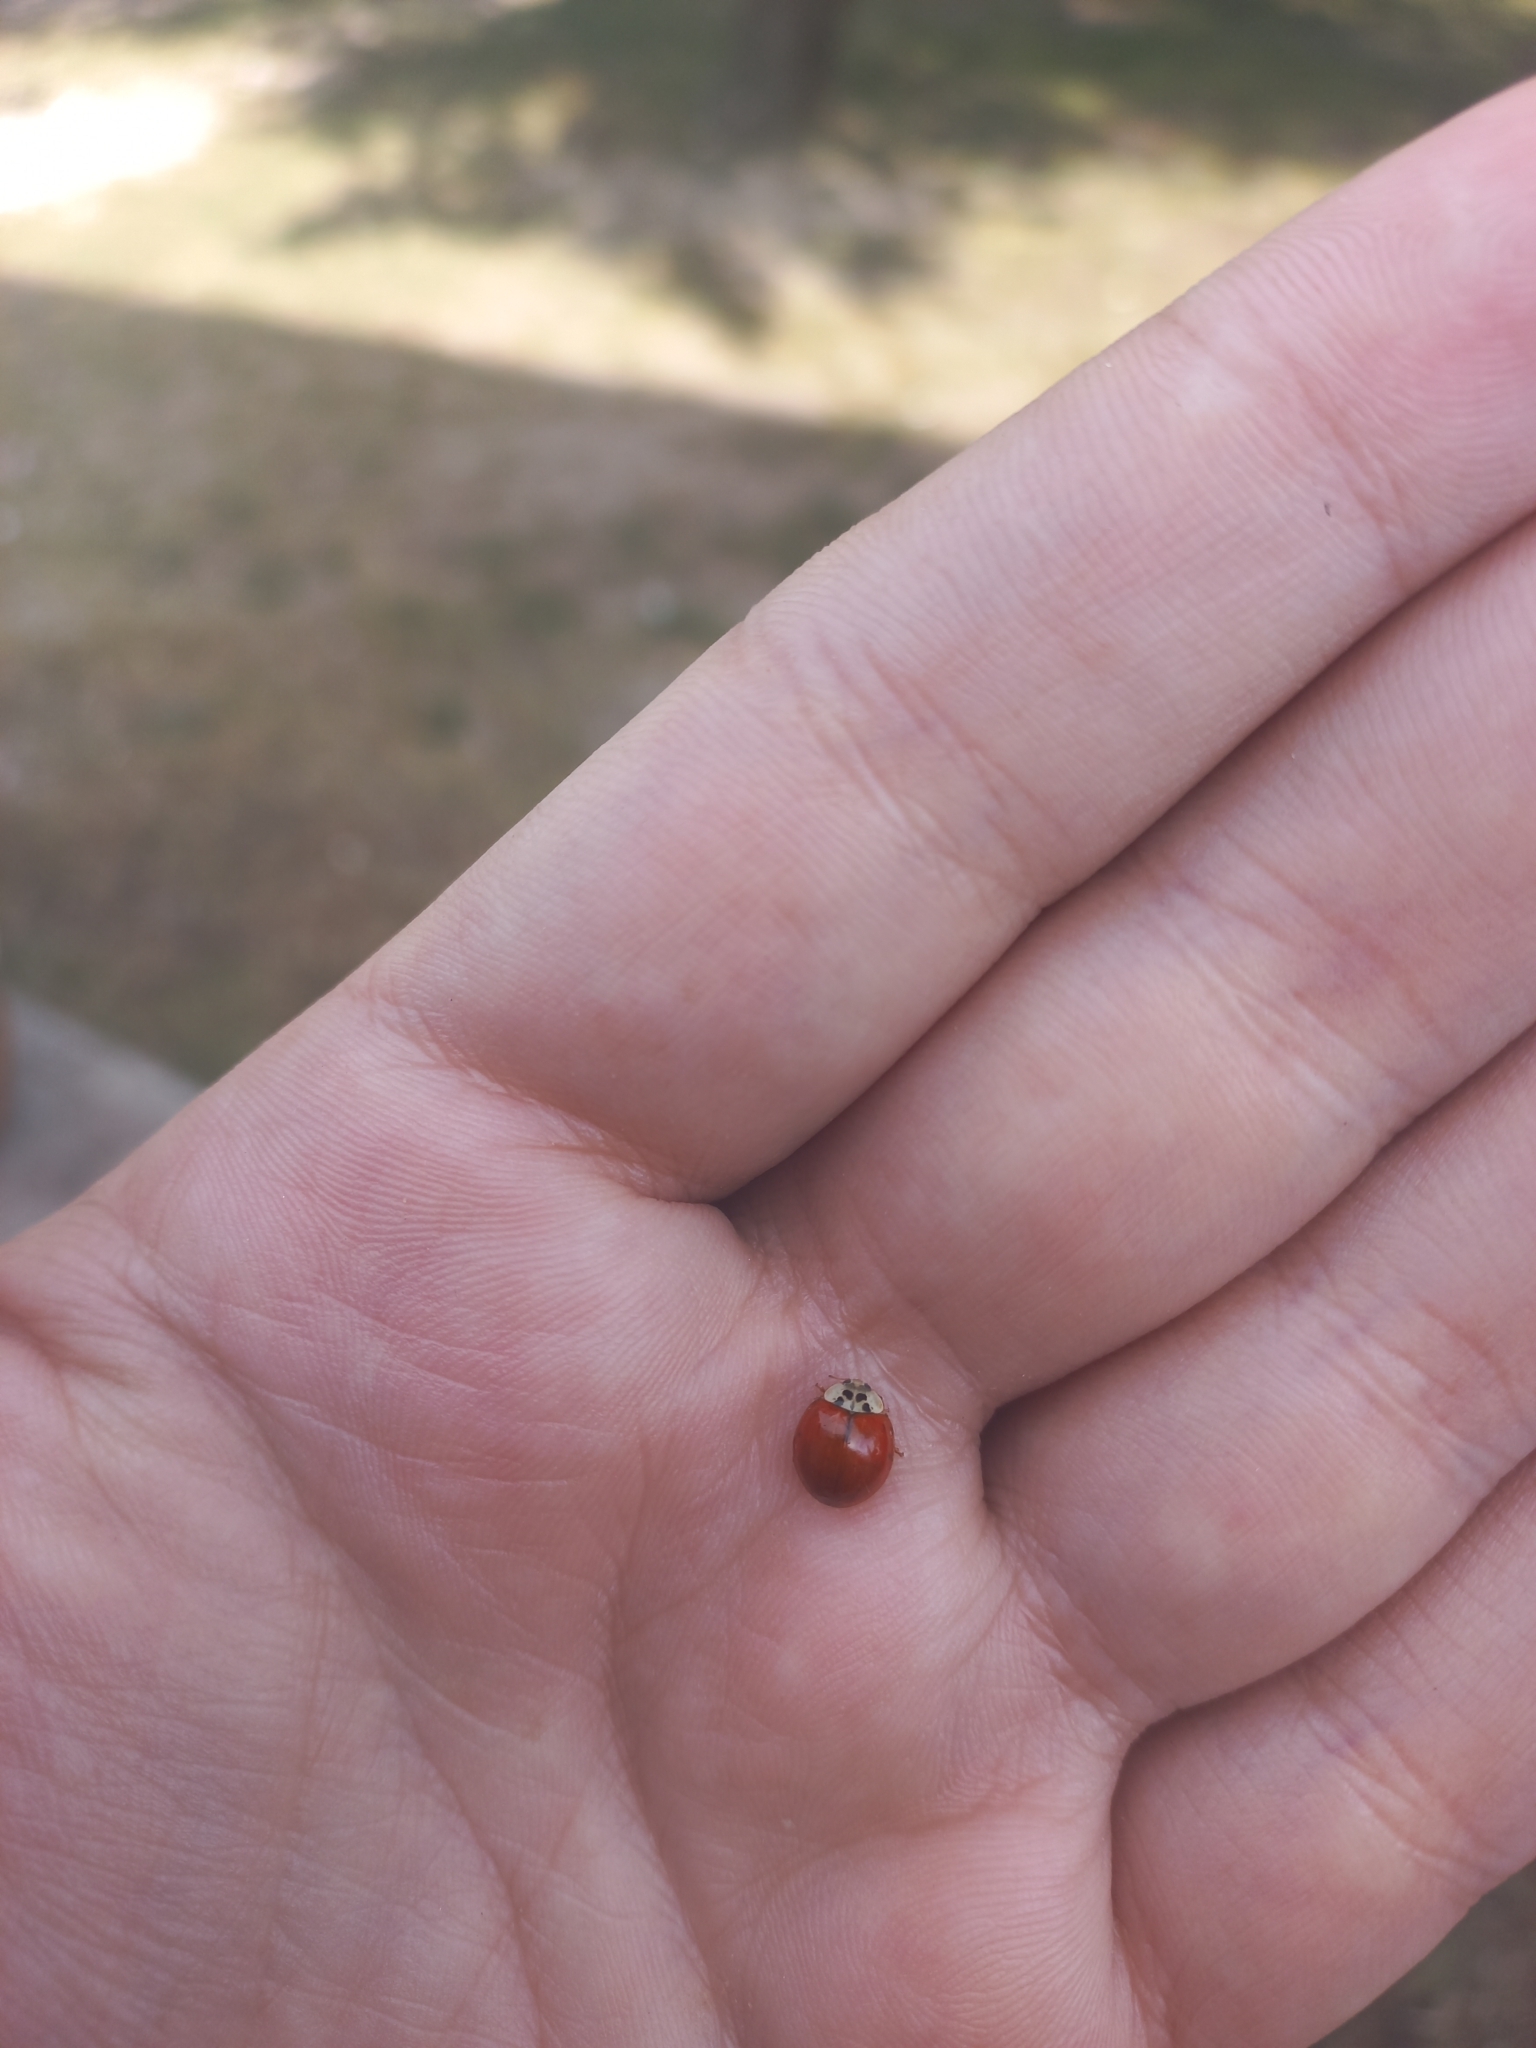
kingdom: Animalia
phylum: Arthropoda
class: Insecta
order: Coleoptera
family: Coccinellidae
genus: Harmonia
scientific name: Harmonia axyridis
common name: Harlequin ladybird
